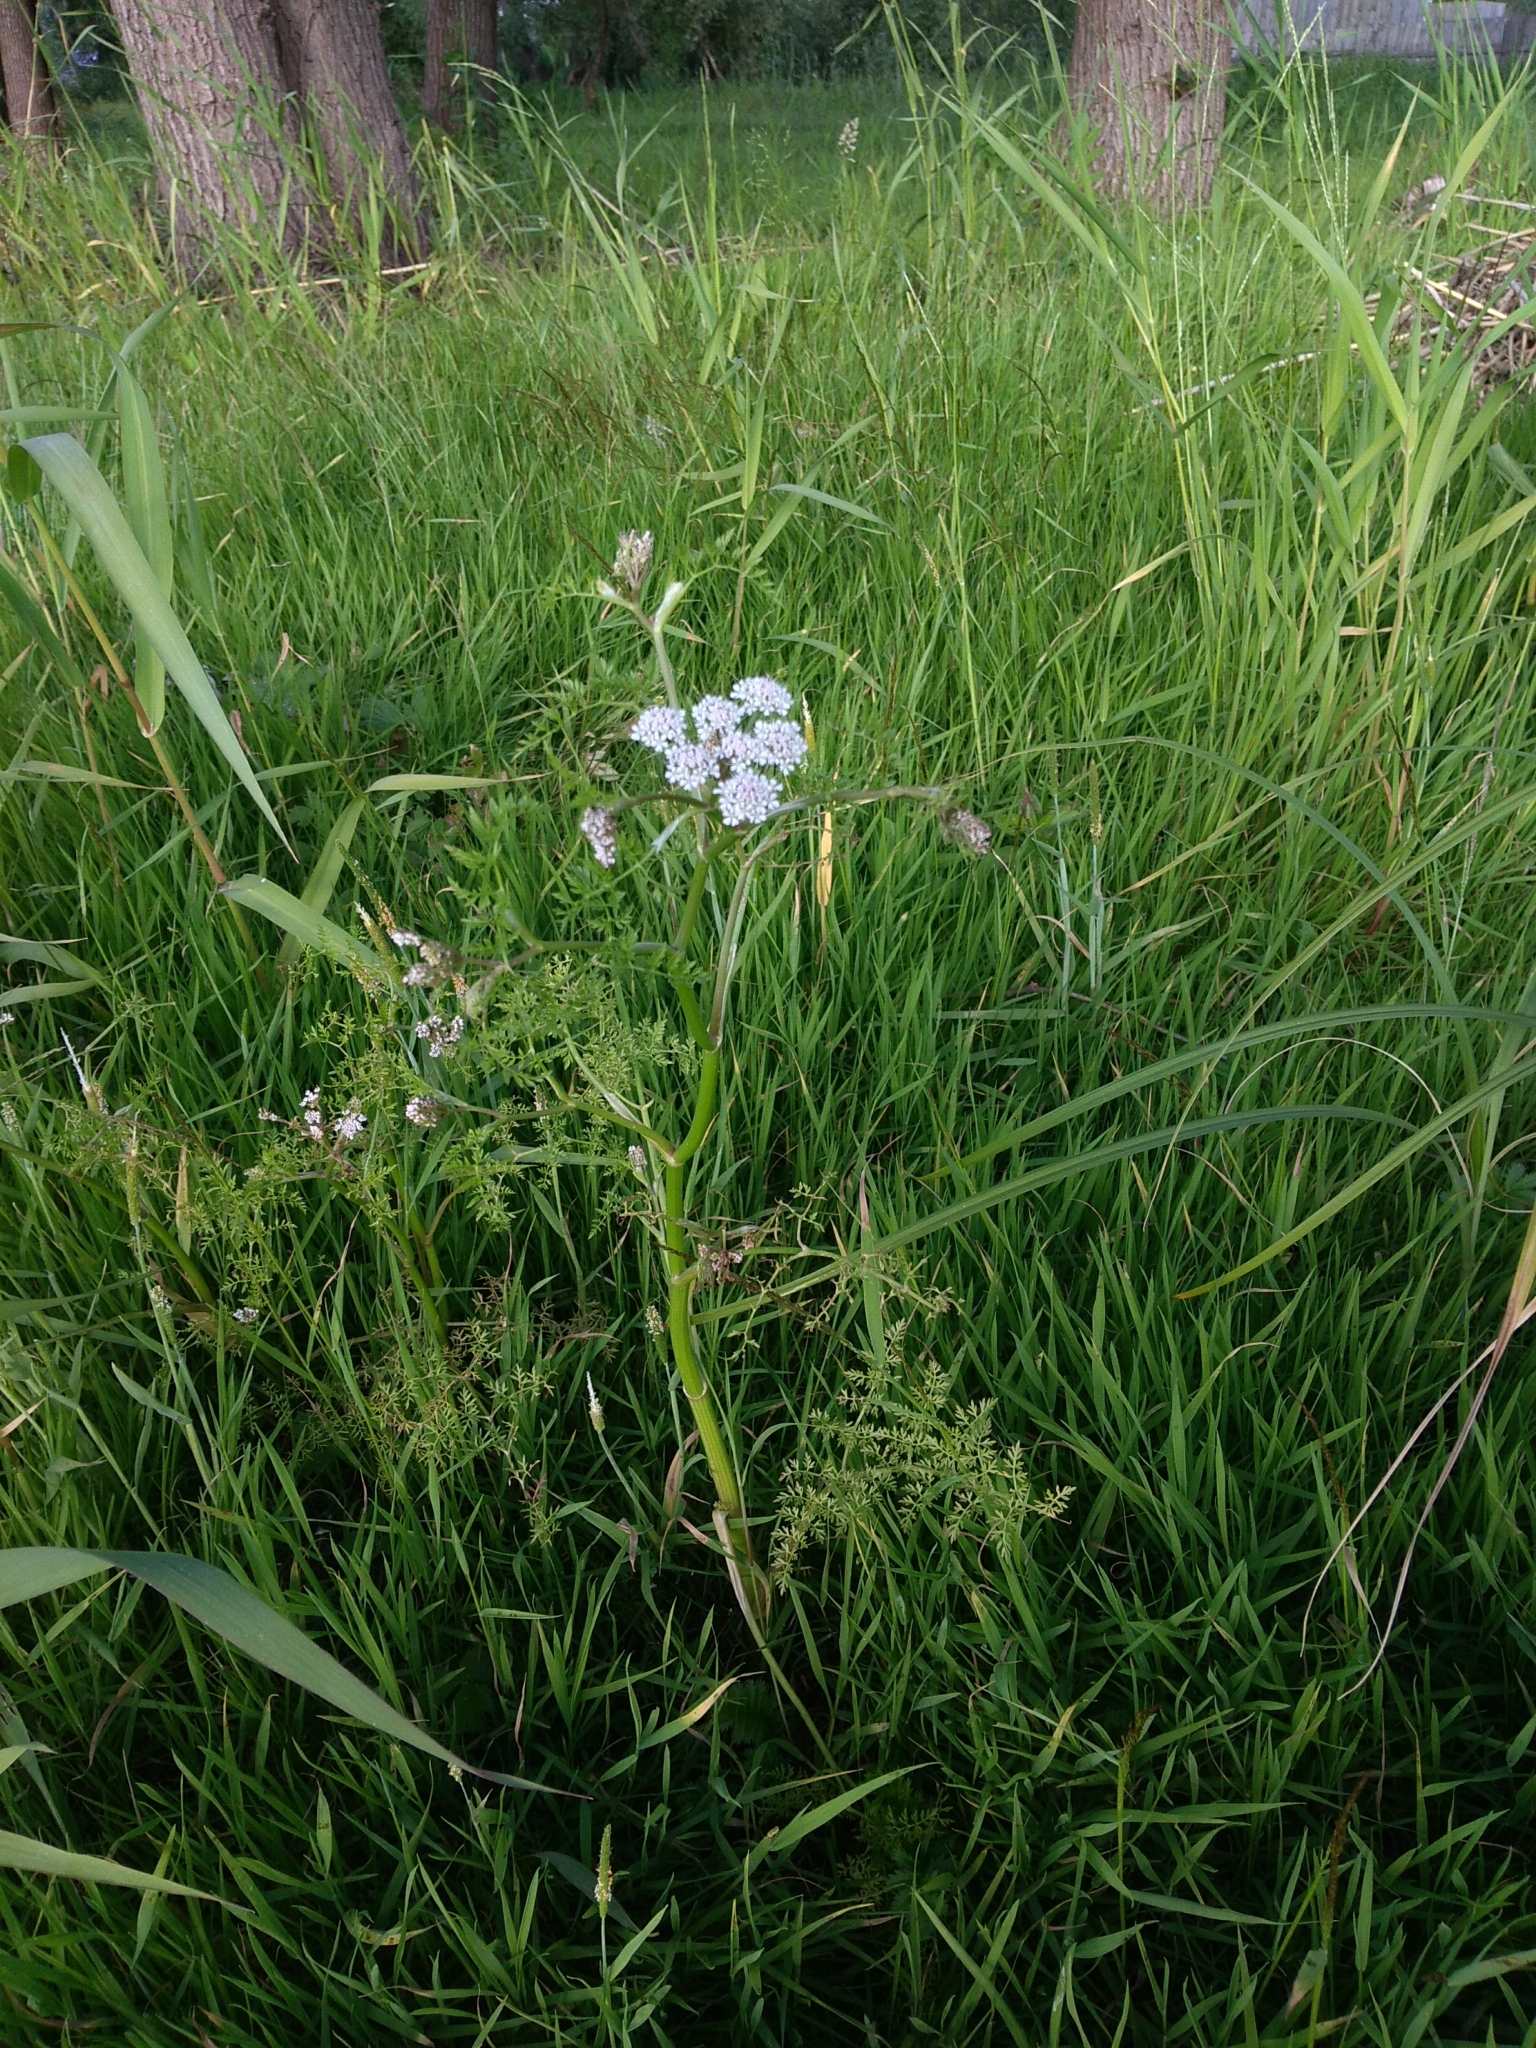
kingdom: Plantae
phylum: Tracheophyta
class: Magnoliopsida
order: Apiales
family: Apiaceae
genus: Oenanthe
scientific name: Oenanthe aquatica
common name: Fine-leaved water-dropwort
